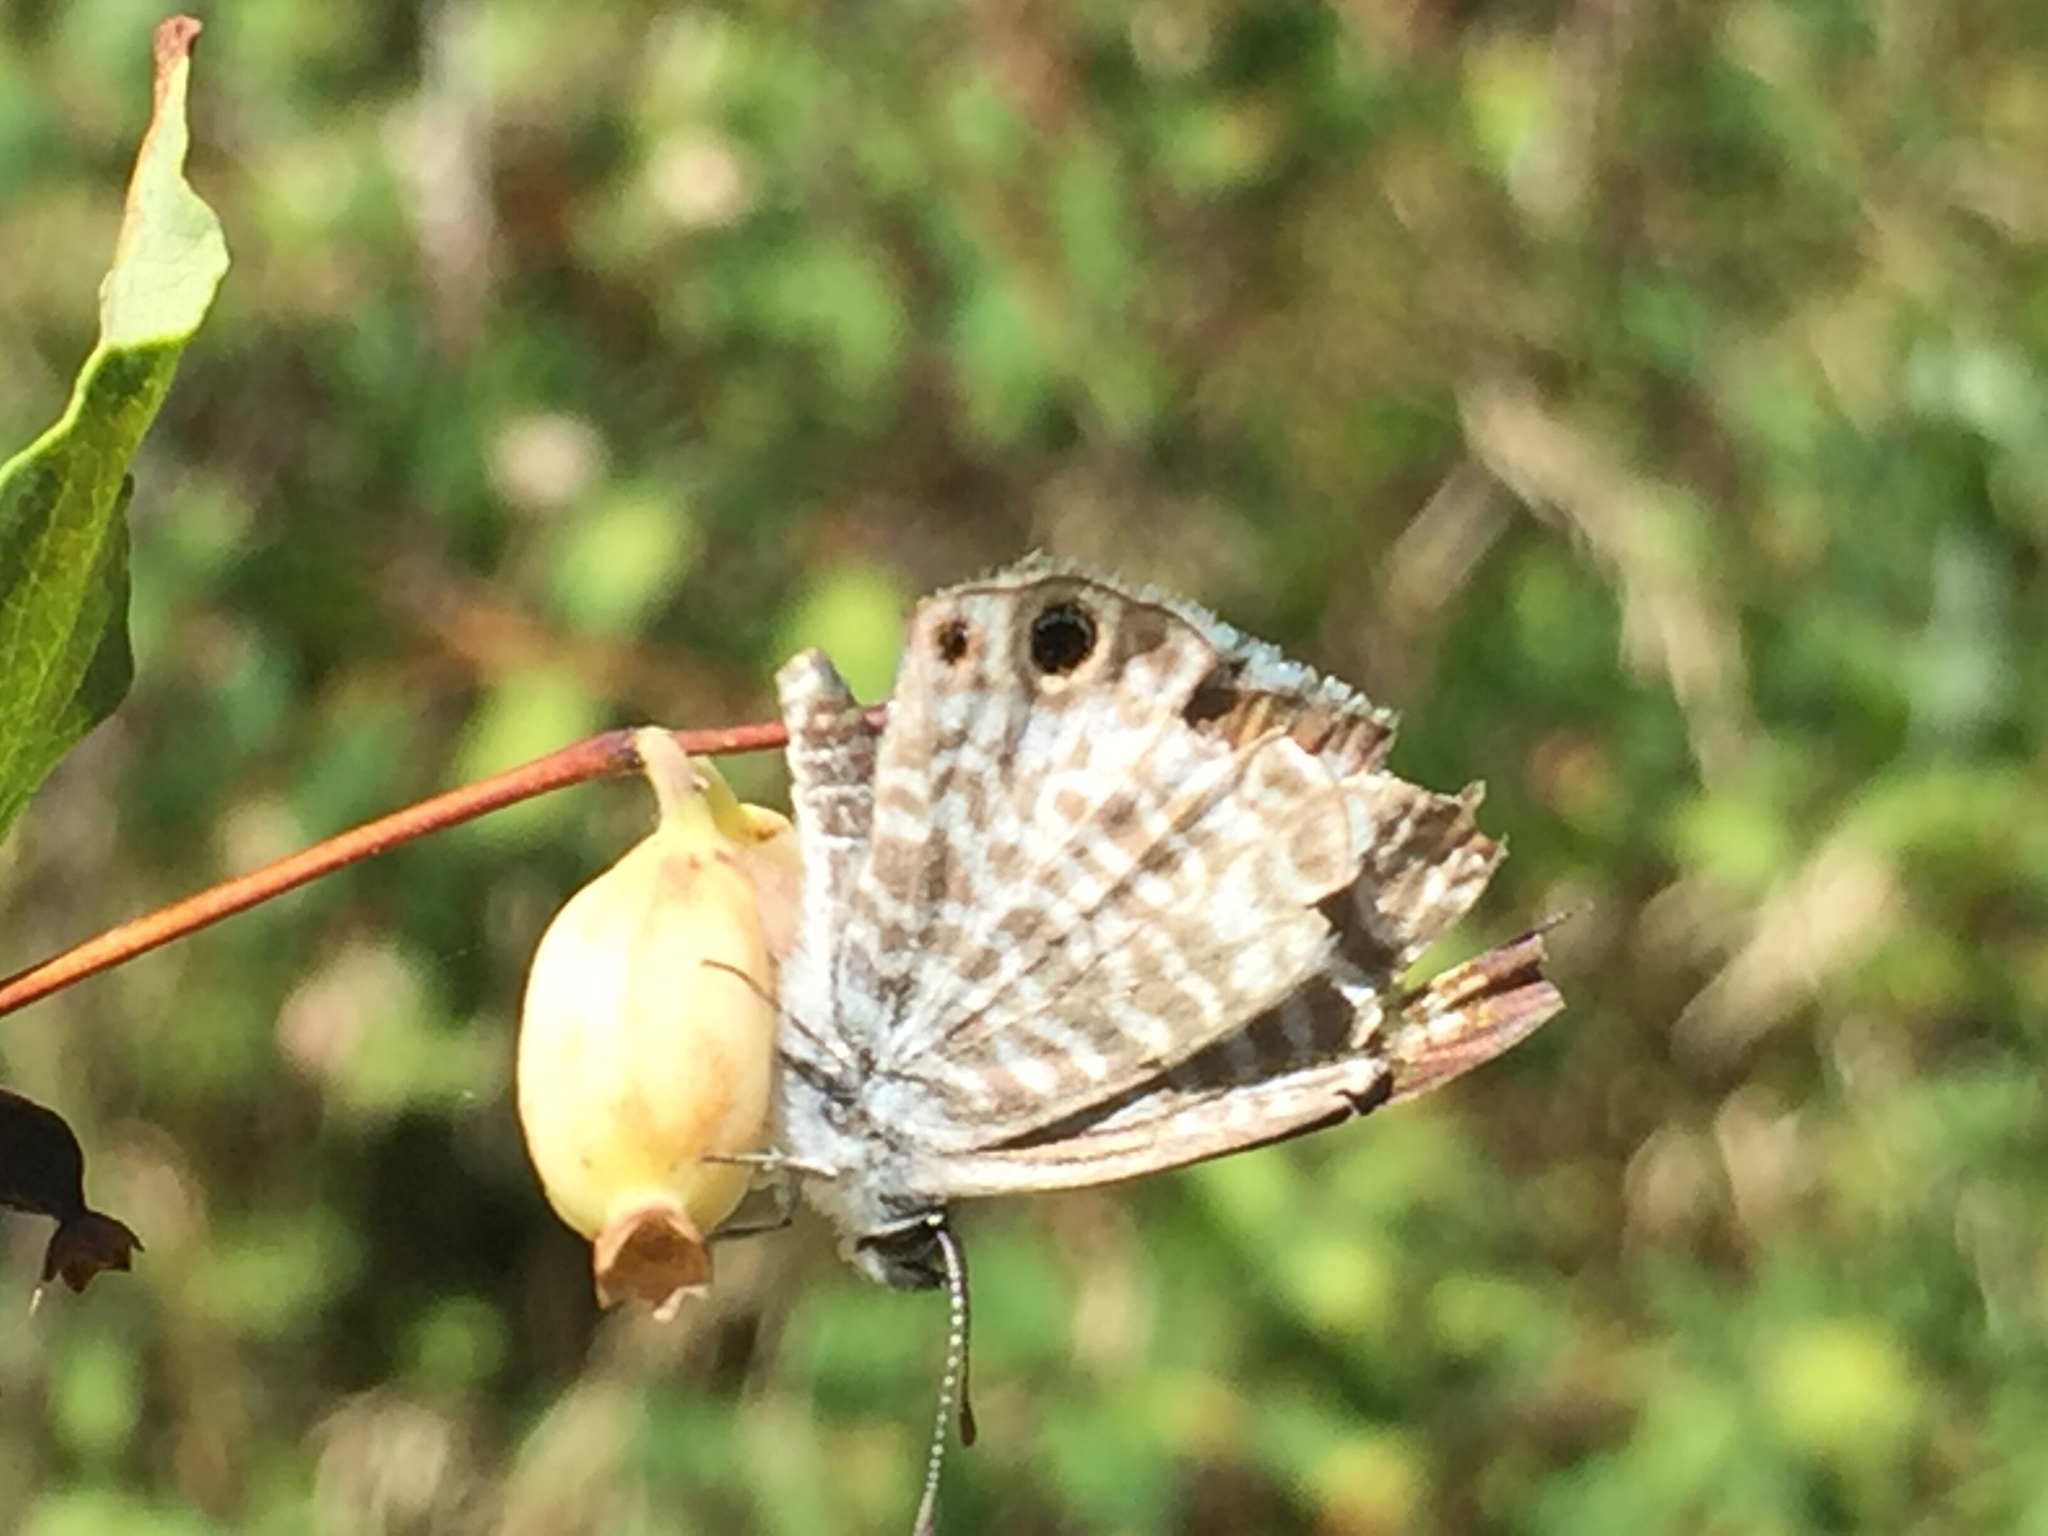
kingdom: Animalia
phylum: Arthropoda
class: Insecta
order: Lepidoptera
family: Lycaenidae
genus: Leptotes
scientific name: Leptotes marina
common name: Marine blue
